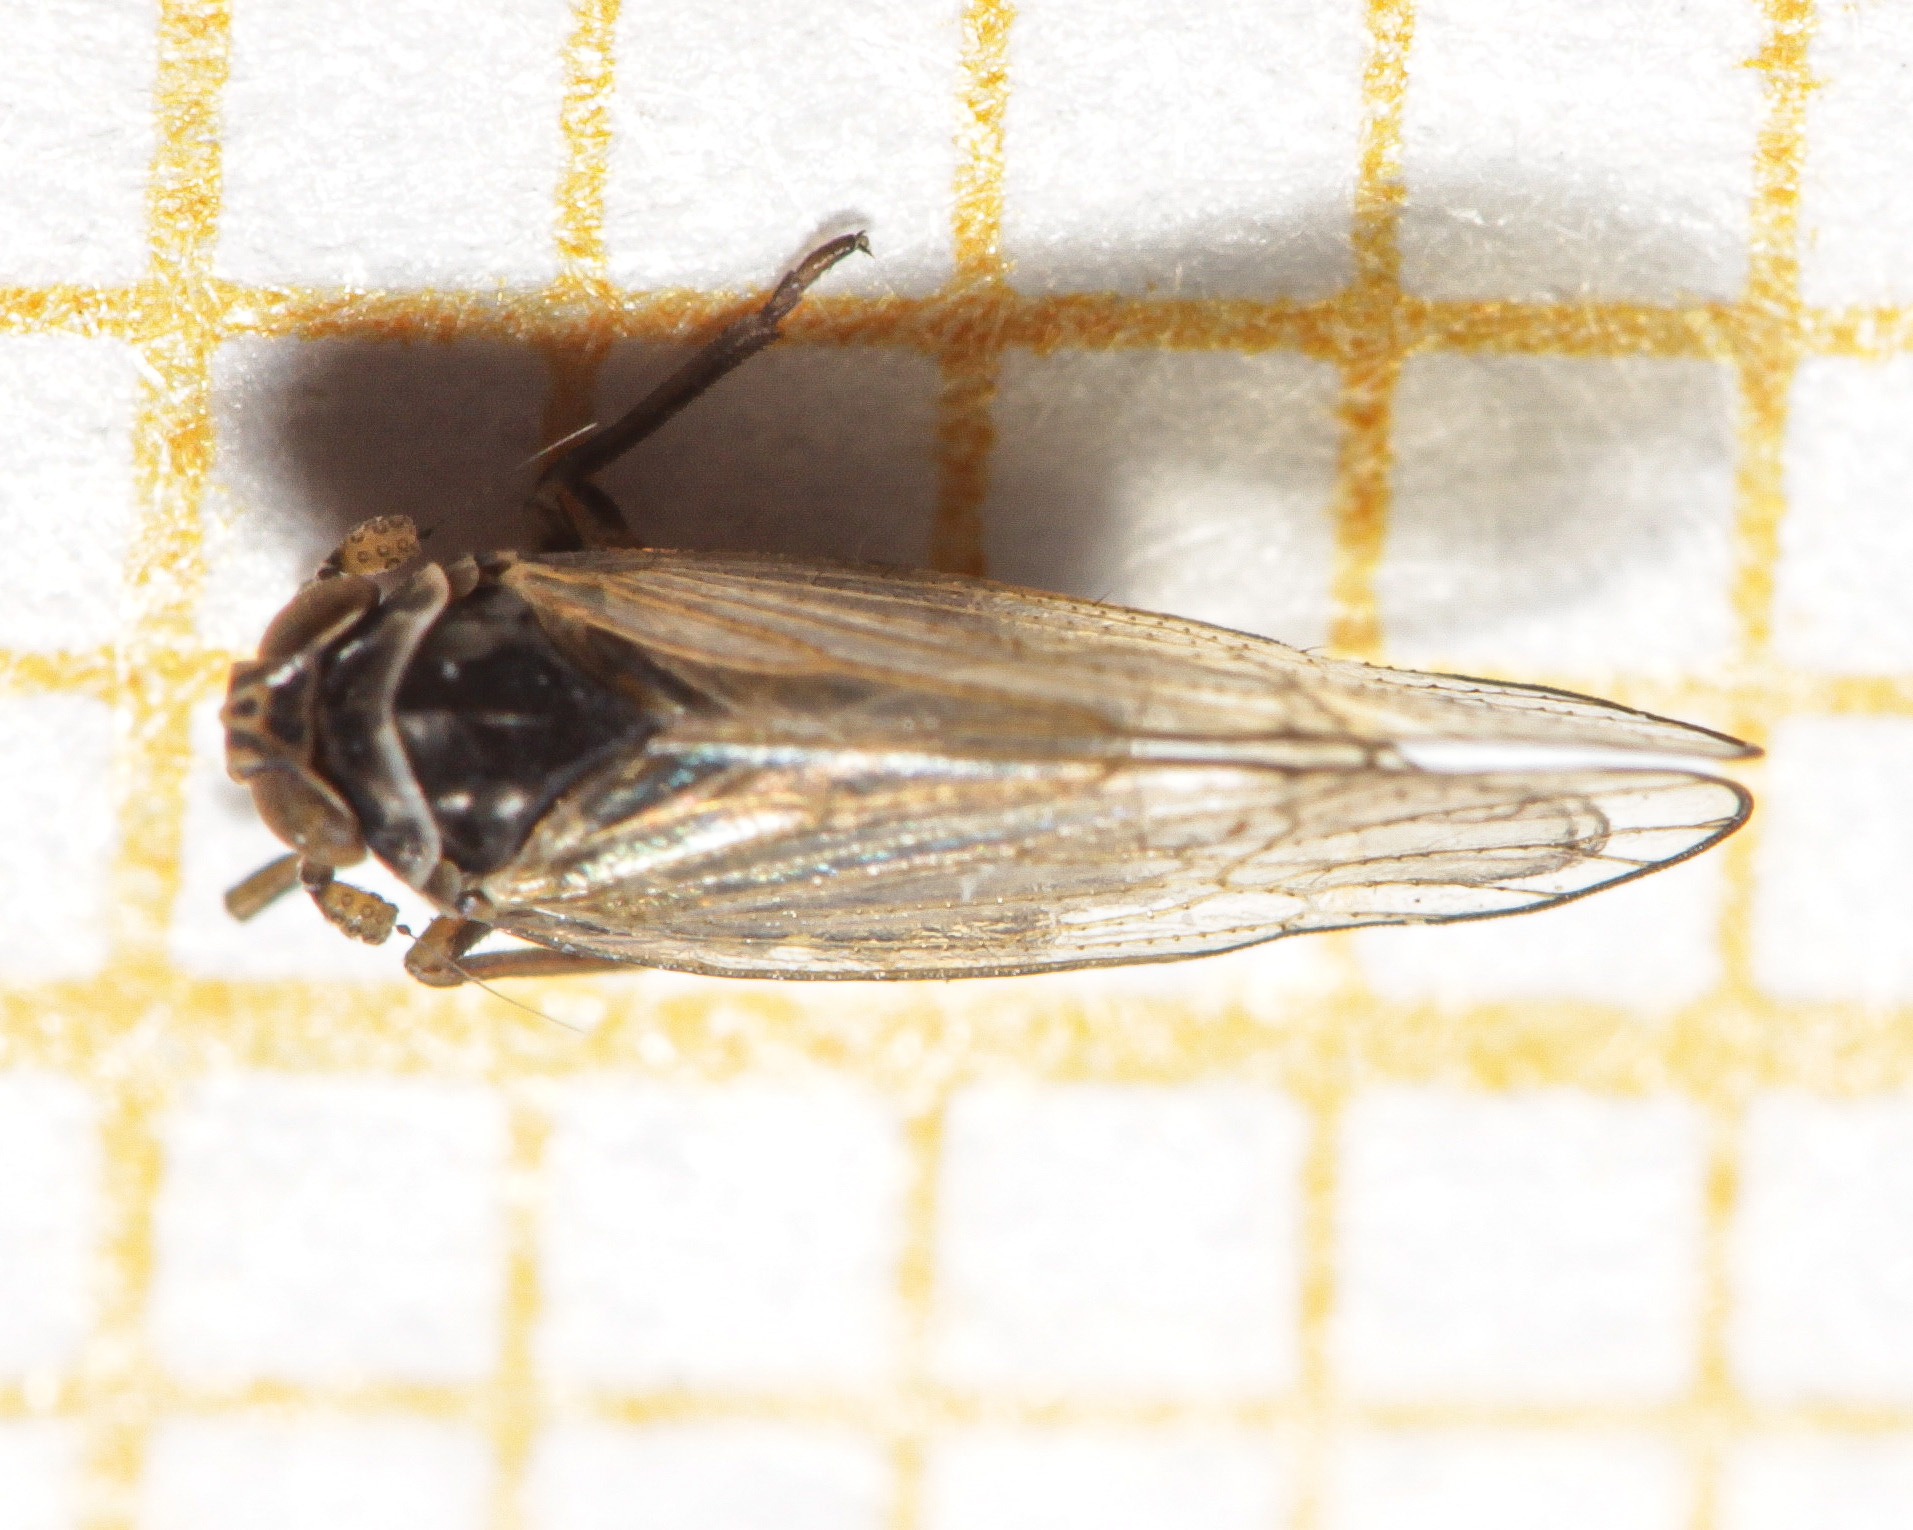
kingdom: Animalia
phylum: Arthropoda
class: Insecta
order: Hemiptera
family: Delphacidae
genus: Javesella
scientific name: Javesella dubia
